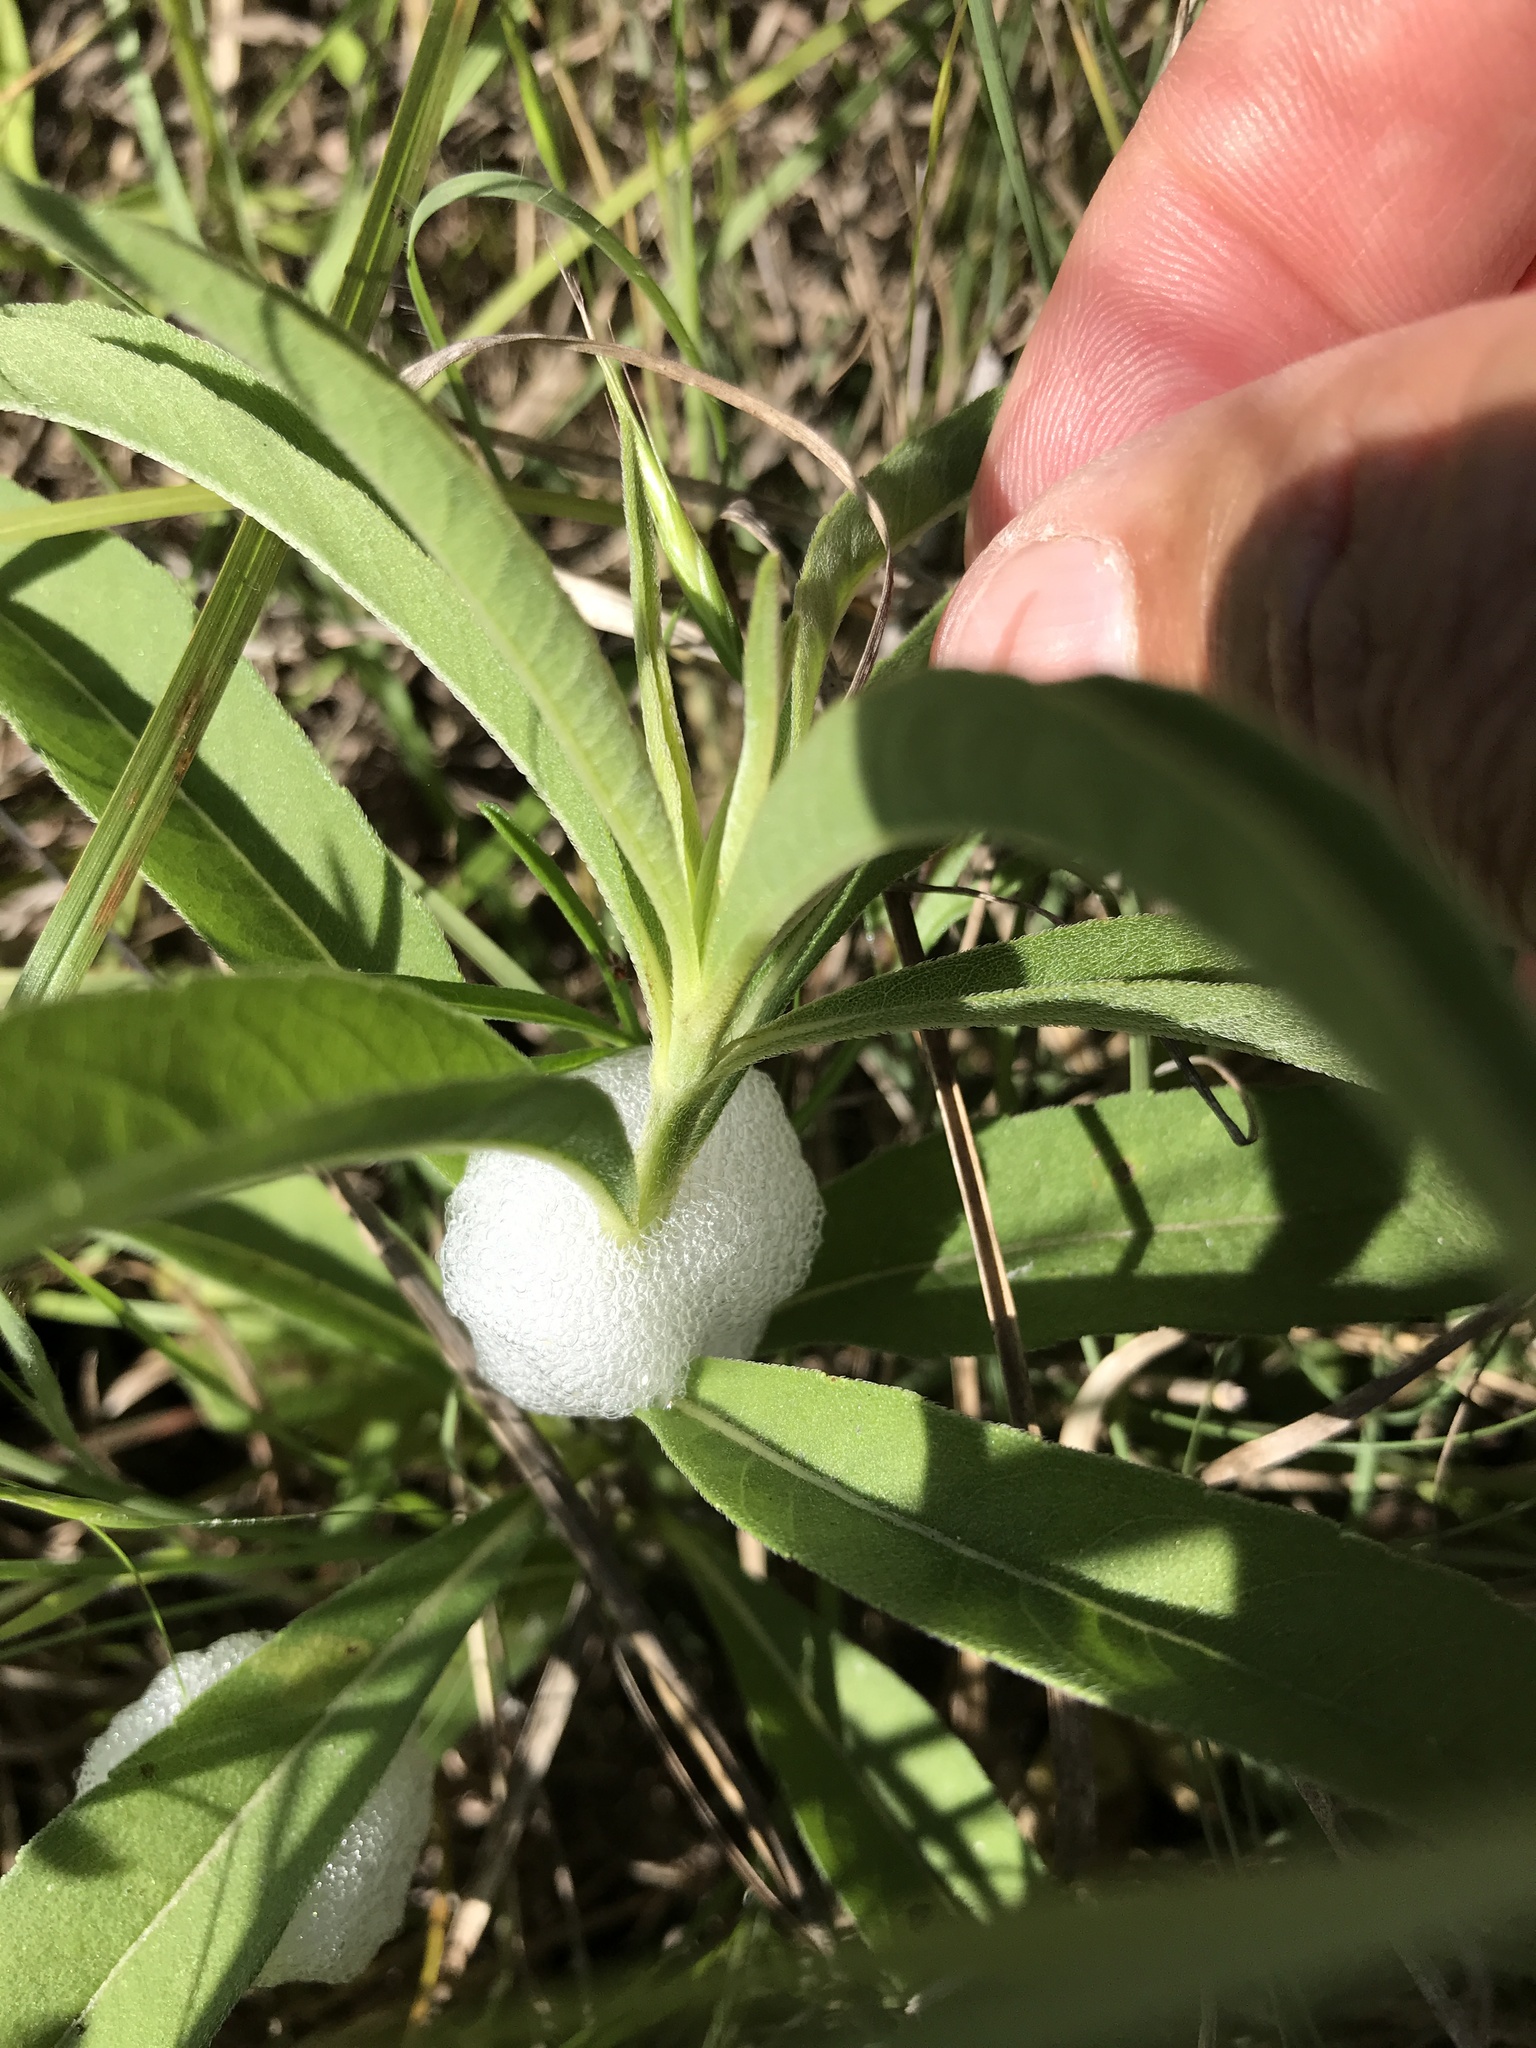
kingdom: Animalia
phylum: Arthropoda
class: Insecta
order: Hemiptera
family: Aphrophoridae
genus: Philaenus
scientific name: Philaenus spumarius
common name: Meadow spittlebug
